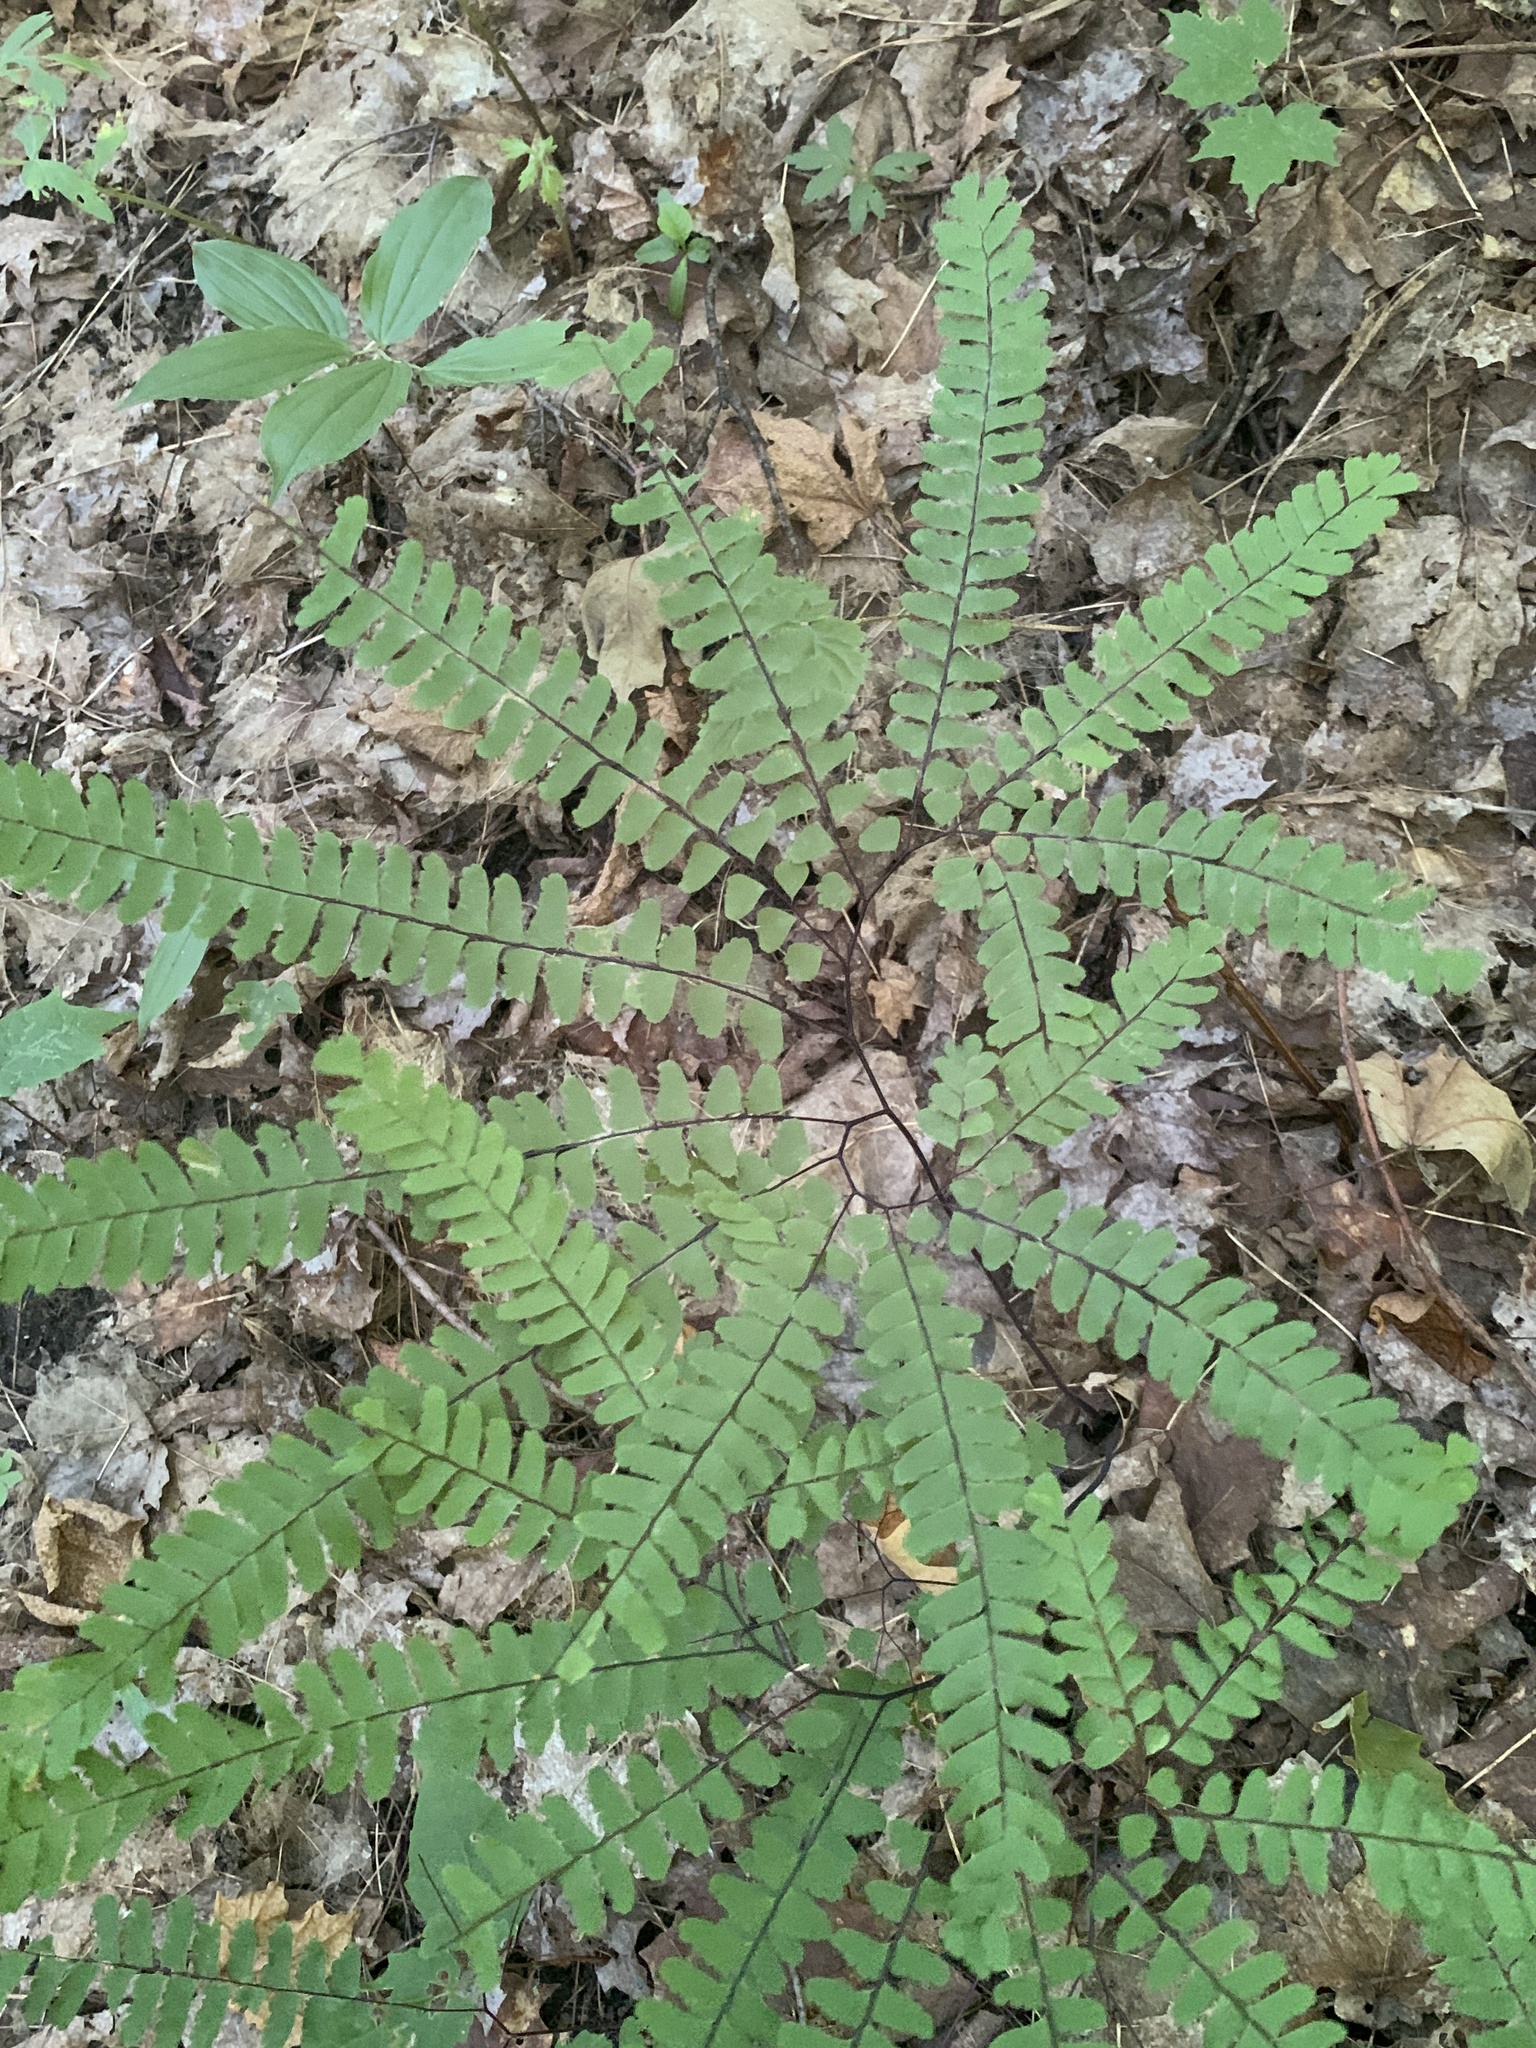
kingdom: Plantae
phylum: Tracheophyta
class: Polypodiopsida
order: Polypodiales
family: Pteridaceae
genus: Adiantum
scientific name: Adiantum pedatum
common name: Five-finger fern
